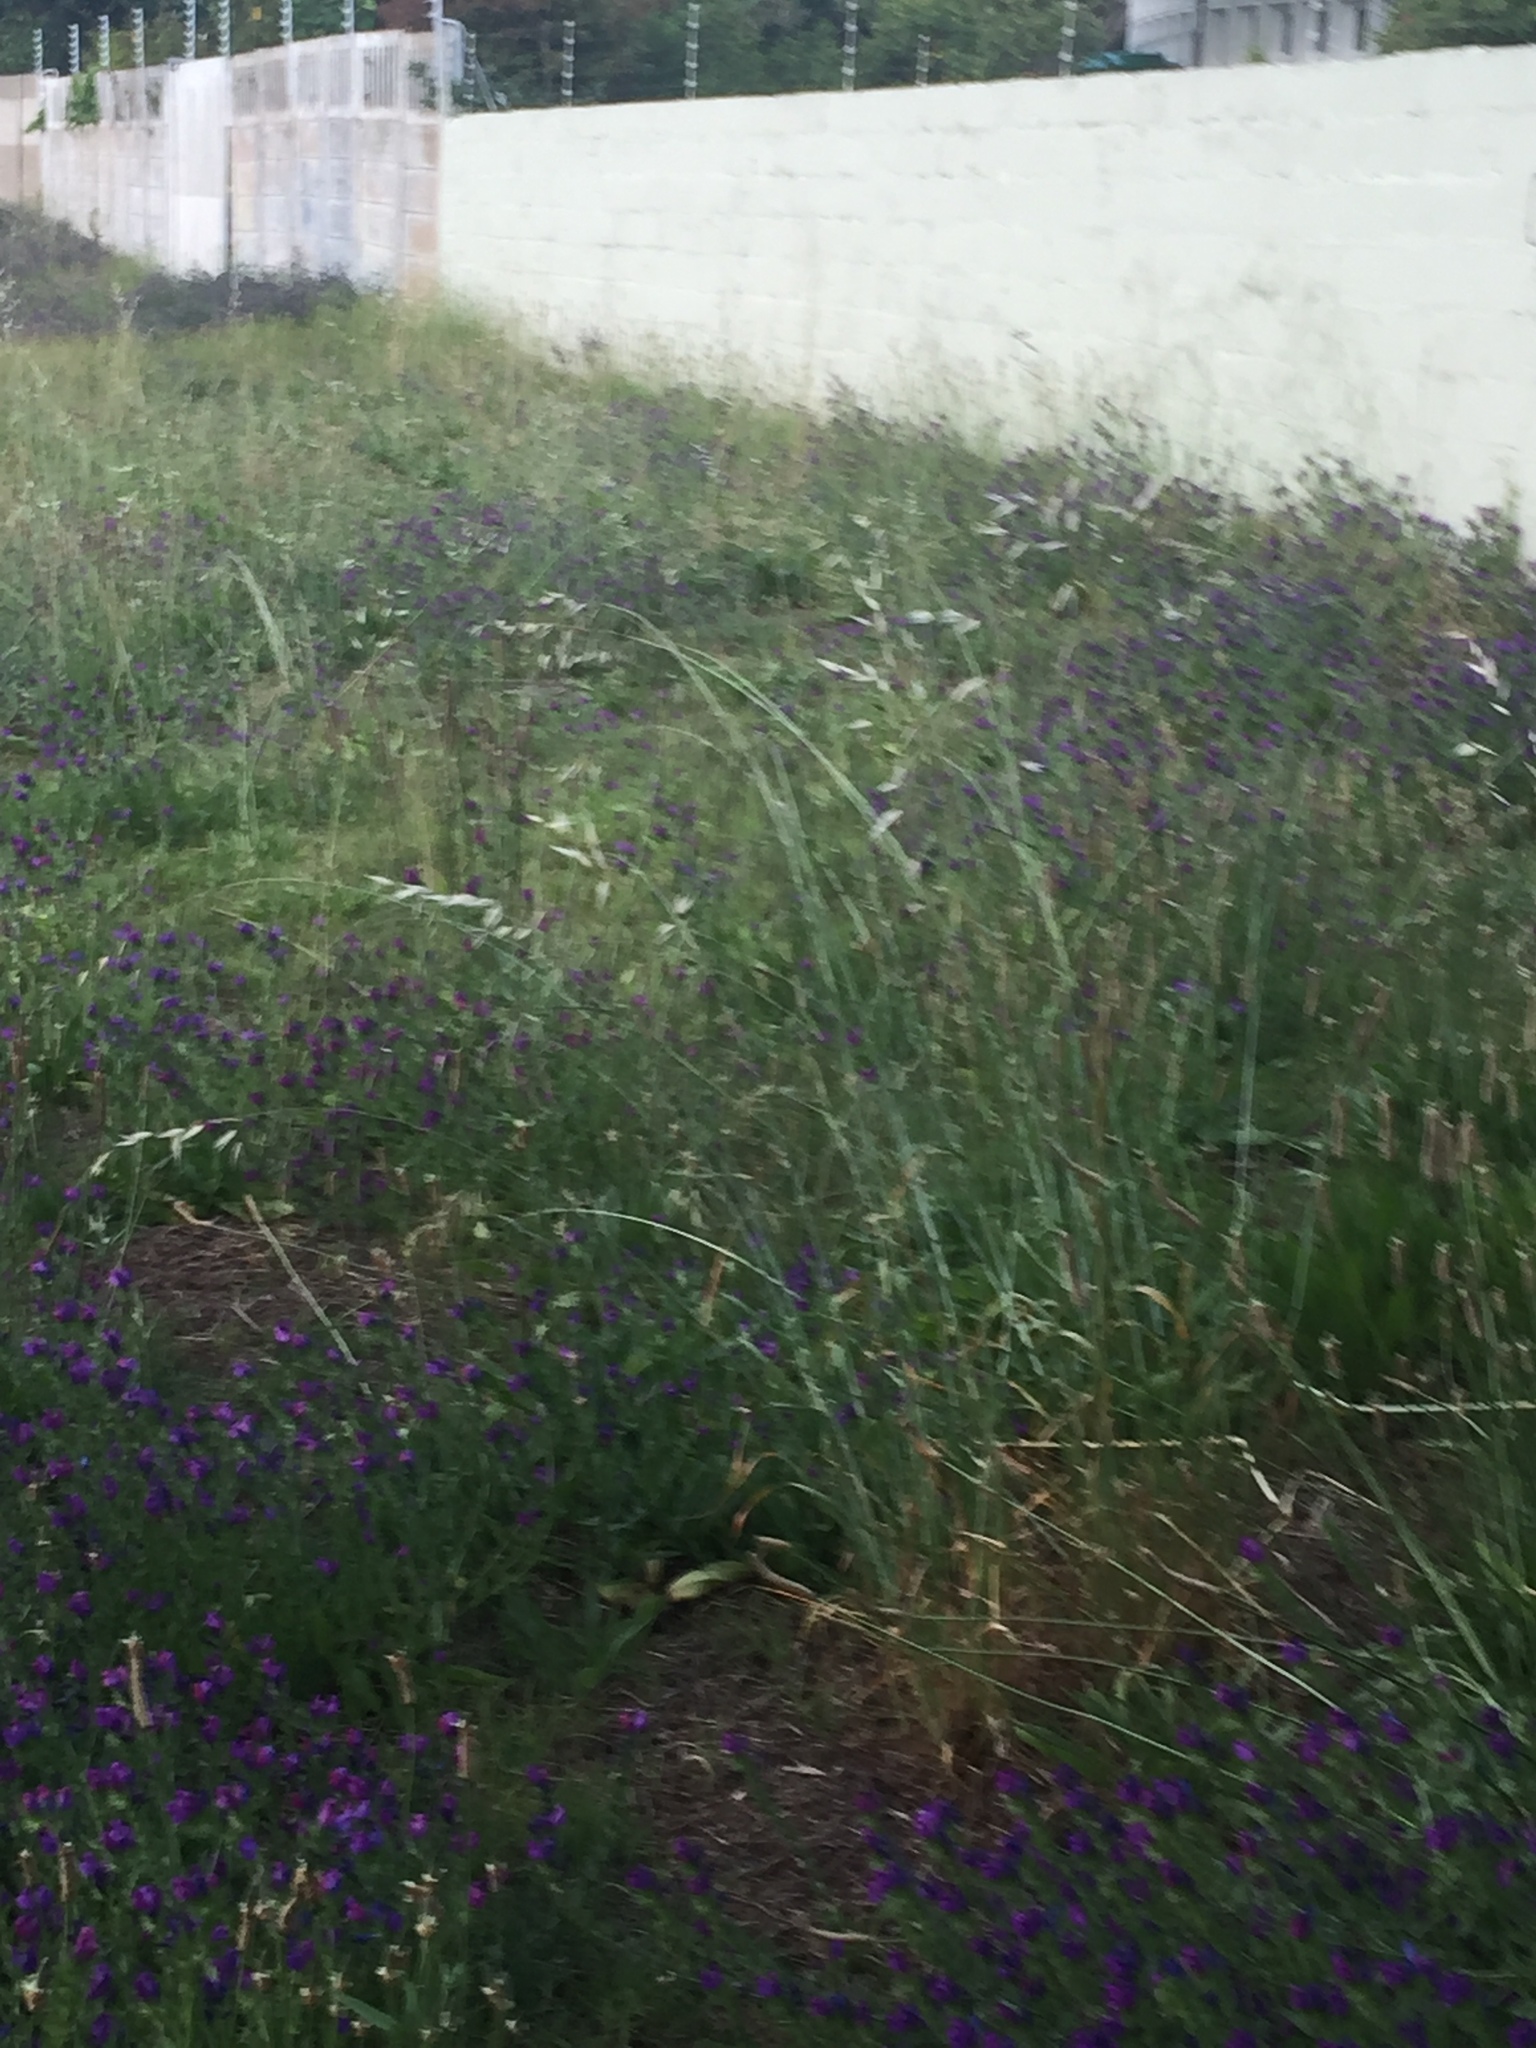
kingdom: Plantae
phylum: Tracheophyta
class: Liliopsida
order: Poales
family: Poaceae
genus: Avena
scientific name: Avena fatua
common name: Wild oat
